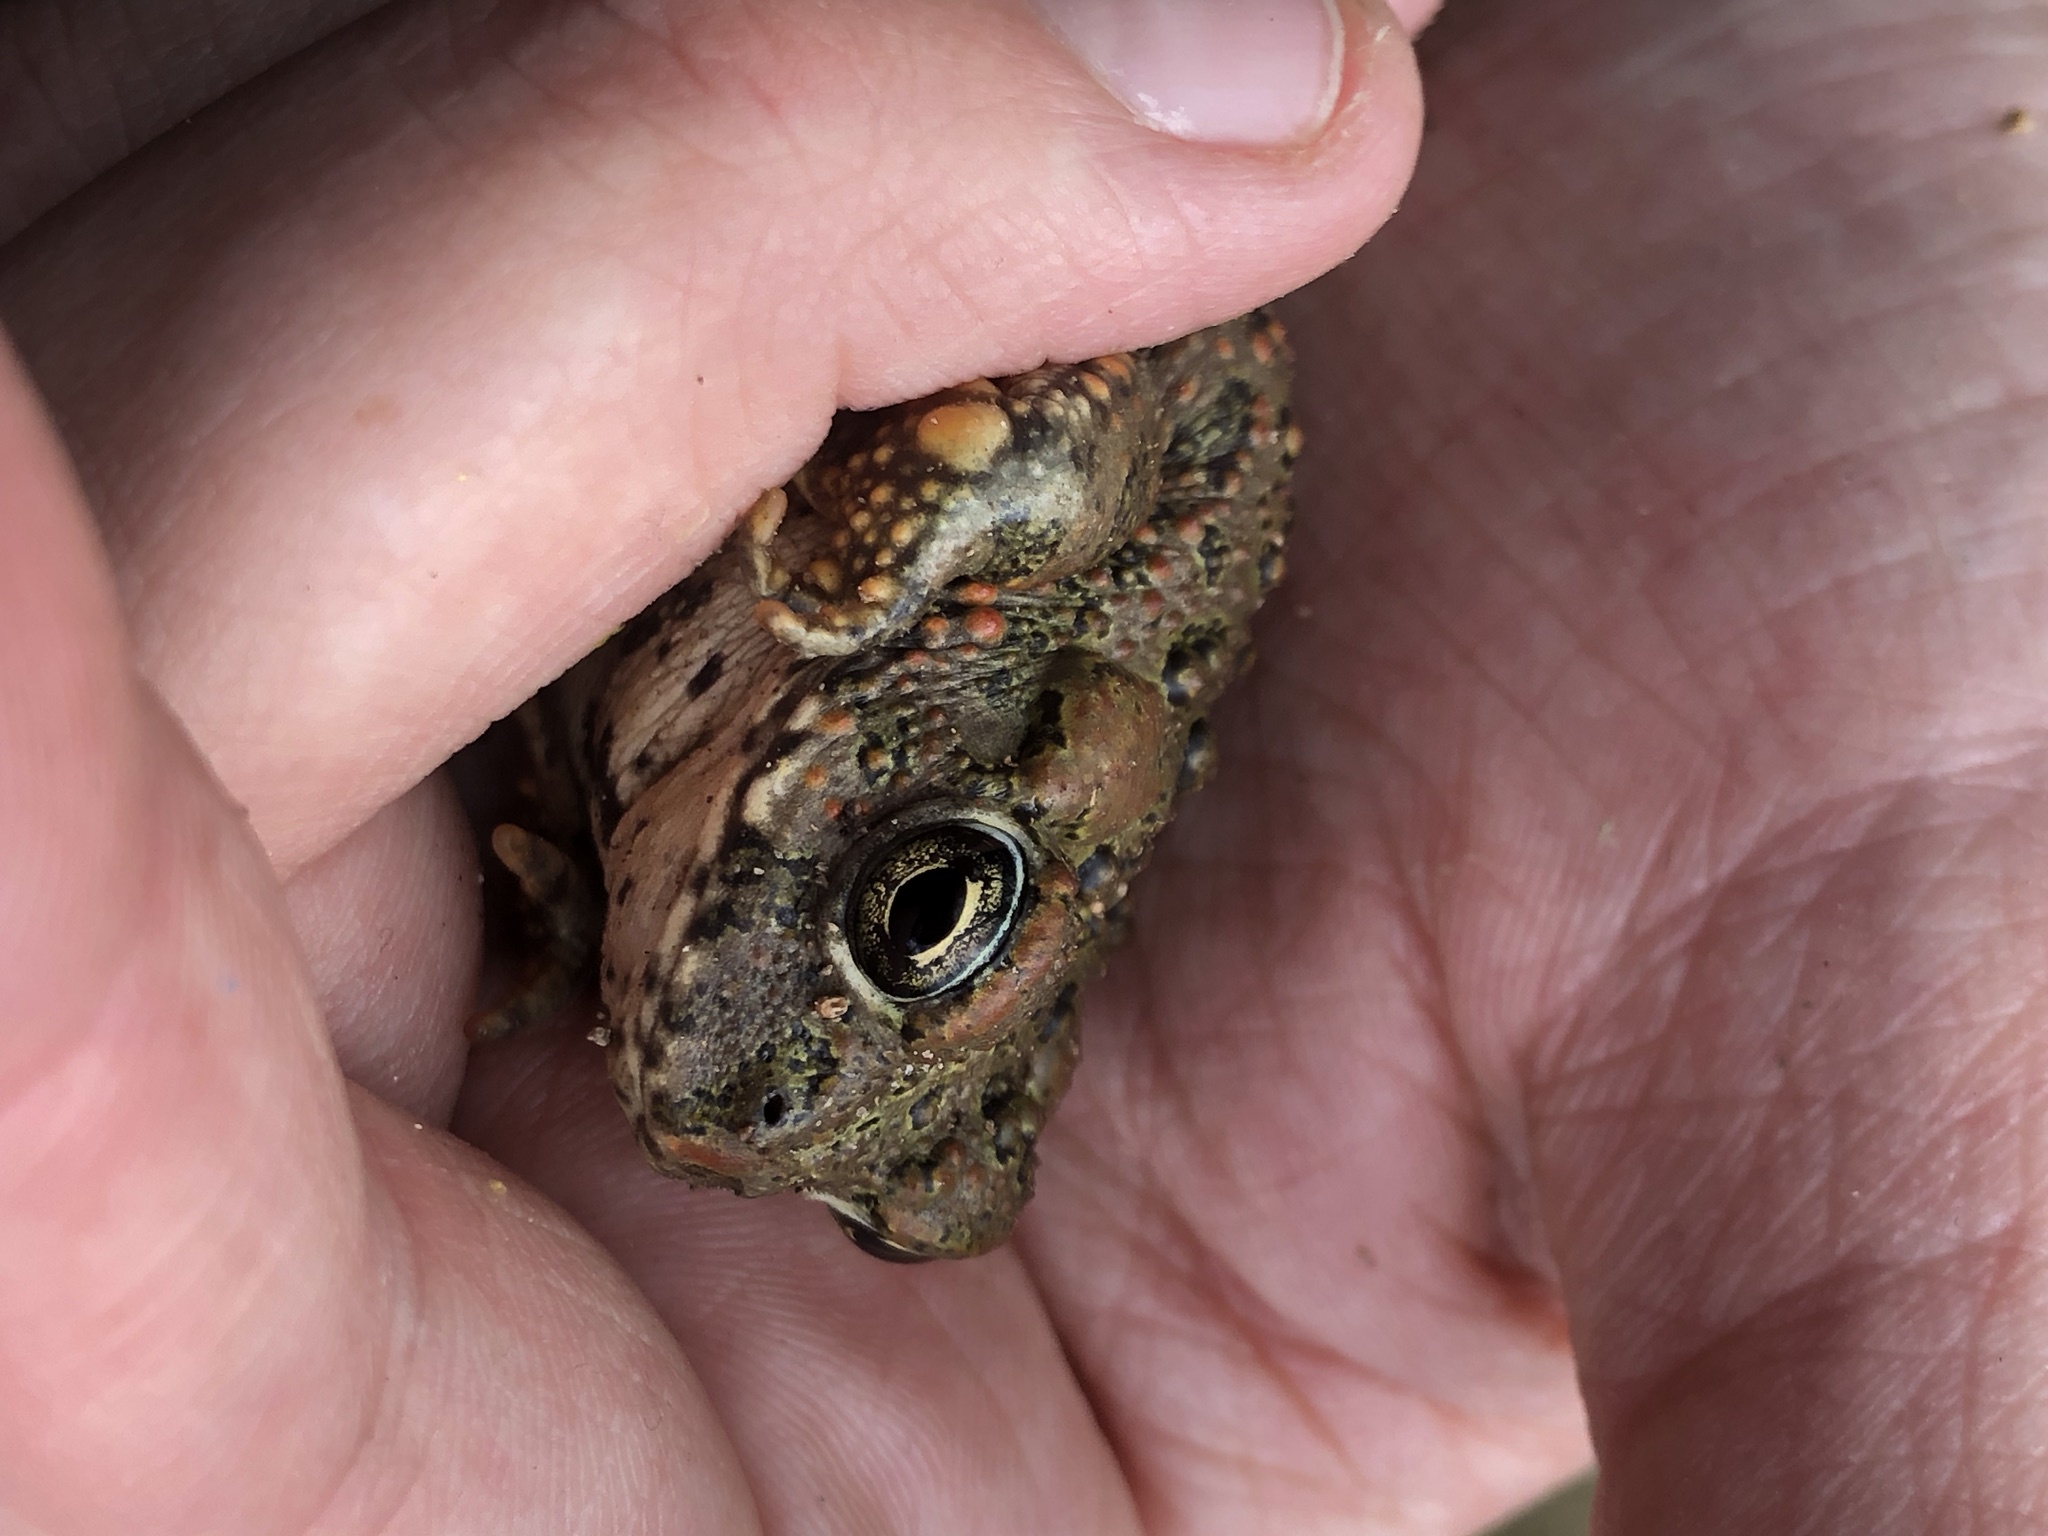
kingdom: Animalia
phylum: Chordata
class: Amphibia
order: Anura
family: Bufonidae
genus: Anaxyrus
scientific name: Anaxyrus boreas
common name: Western toad
